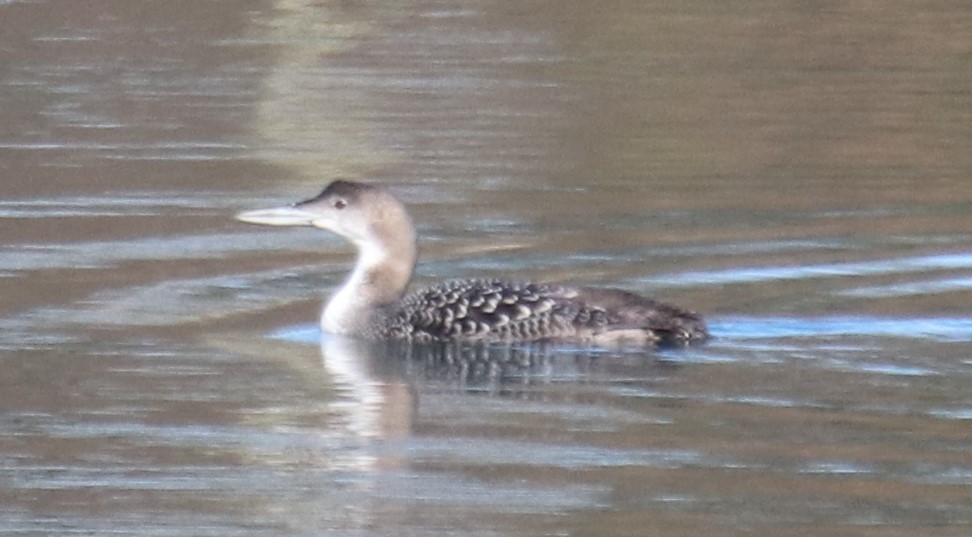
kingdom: Animalia
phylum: Chordata
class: Aves
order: Gaviiformes
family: Gaviidae
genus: Gavia
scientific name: Gavia immer
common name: Common loon
